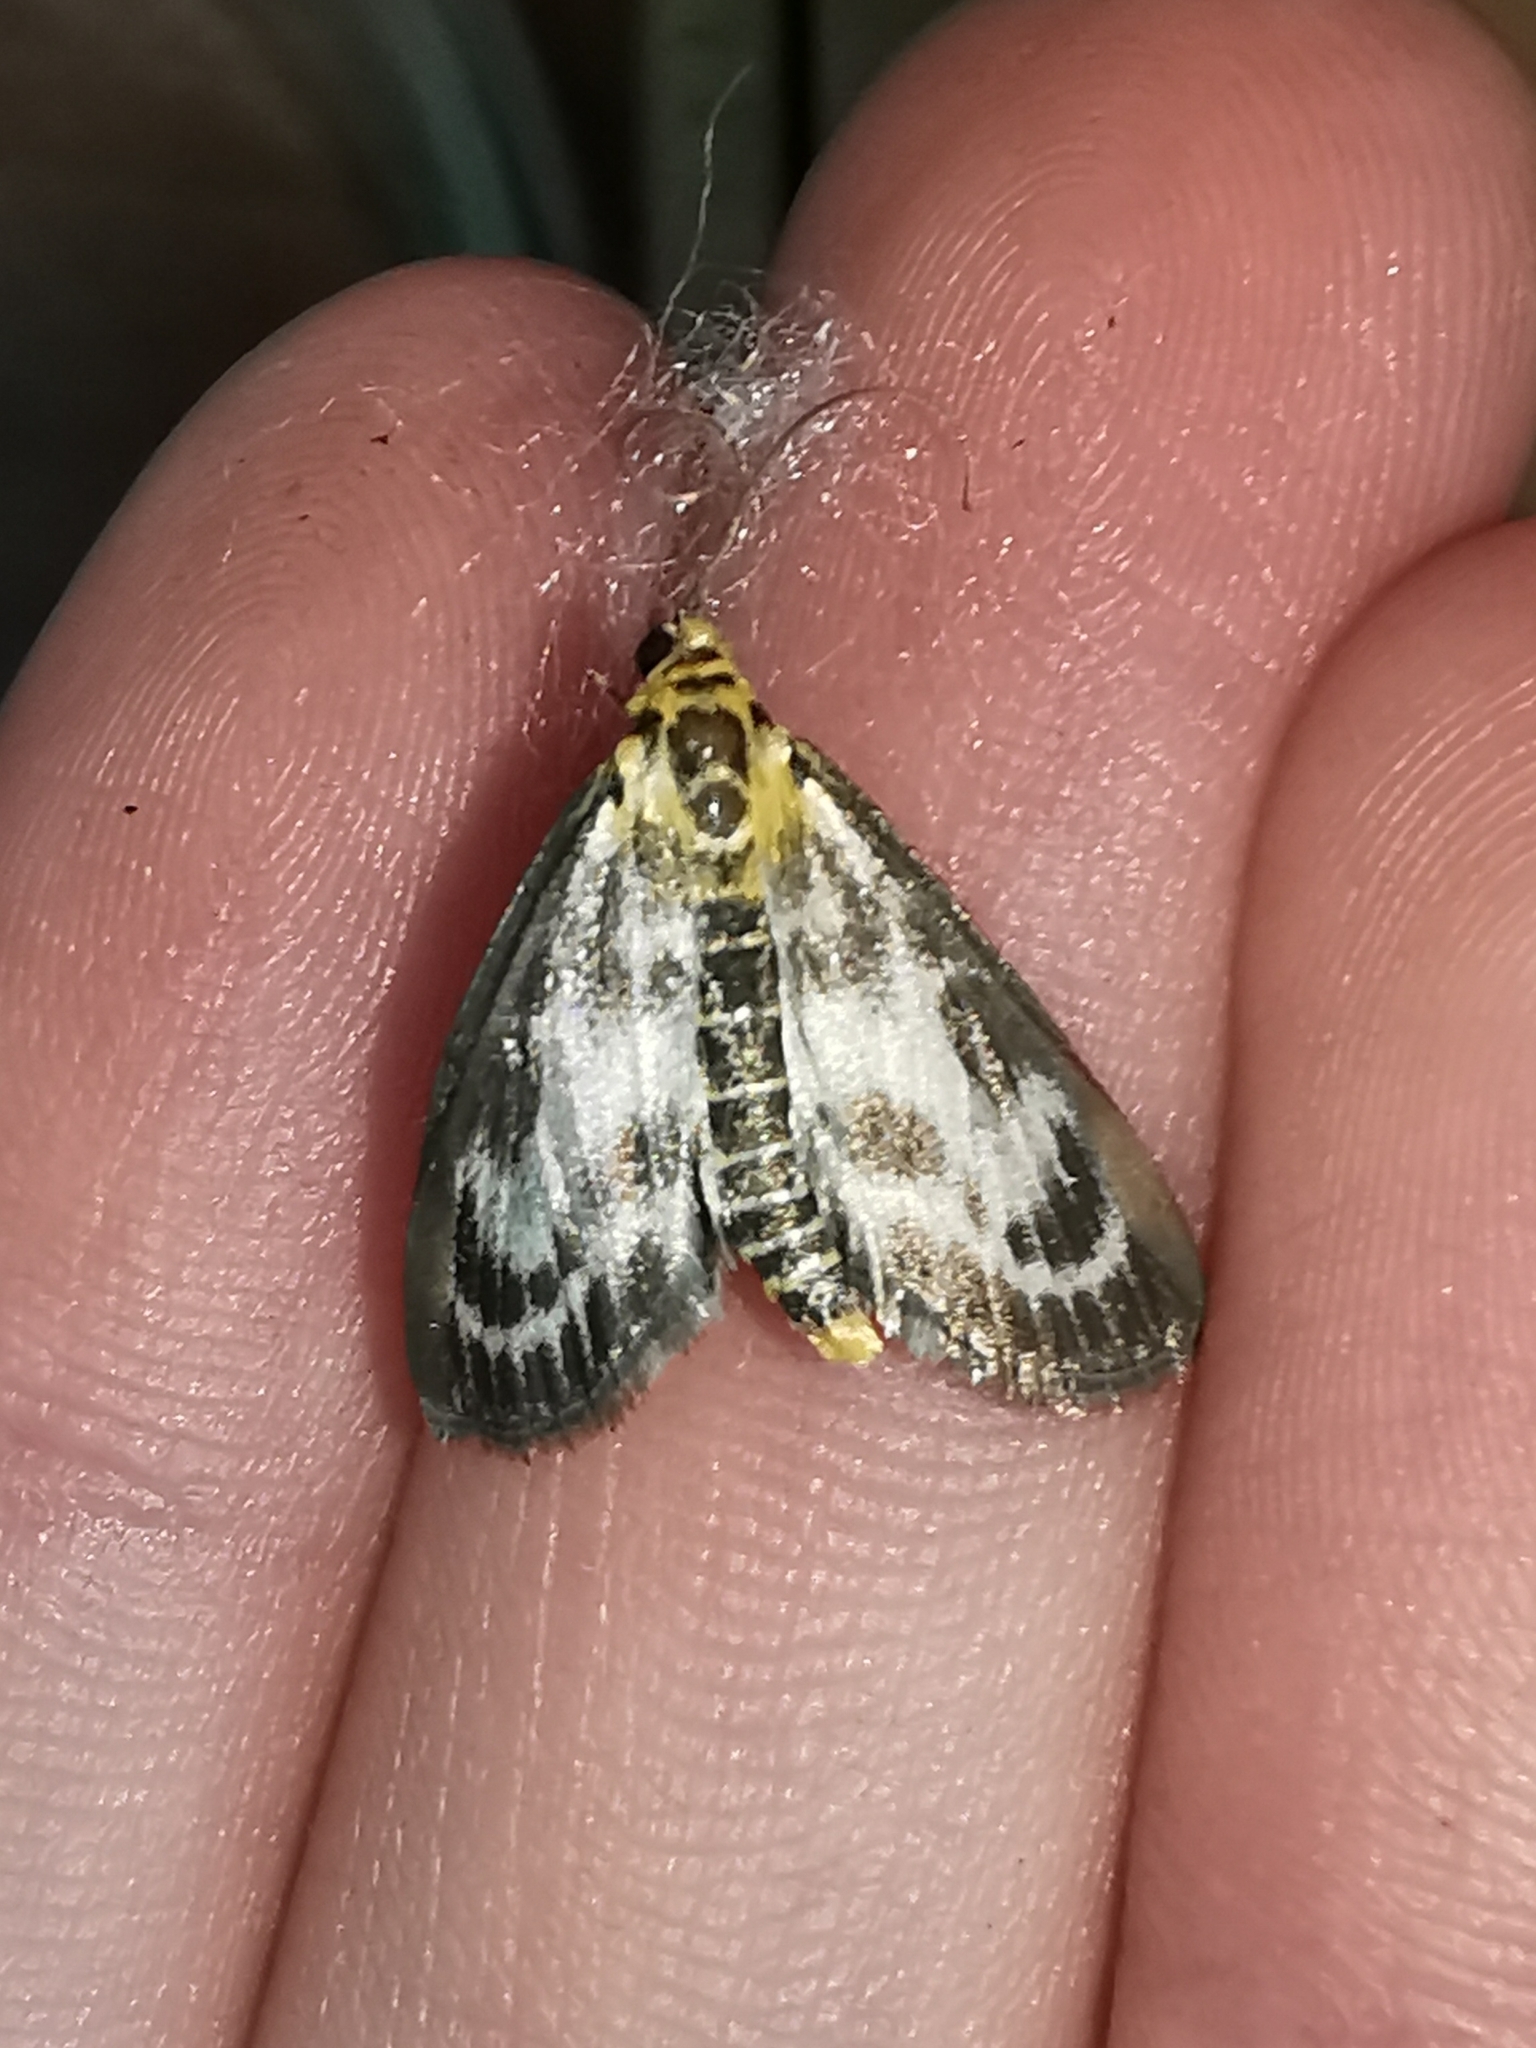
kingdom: Animalia
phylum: Arthropoda
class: Insecta
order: Lepidoptera
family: Crambidae
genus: Anania
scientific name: Anania hortulata
